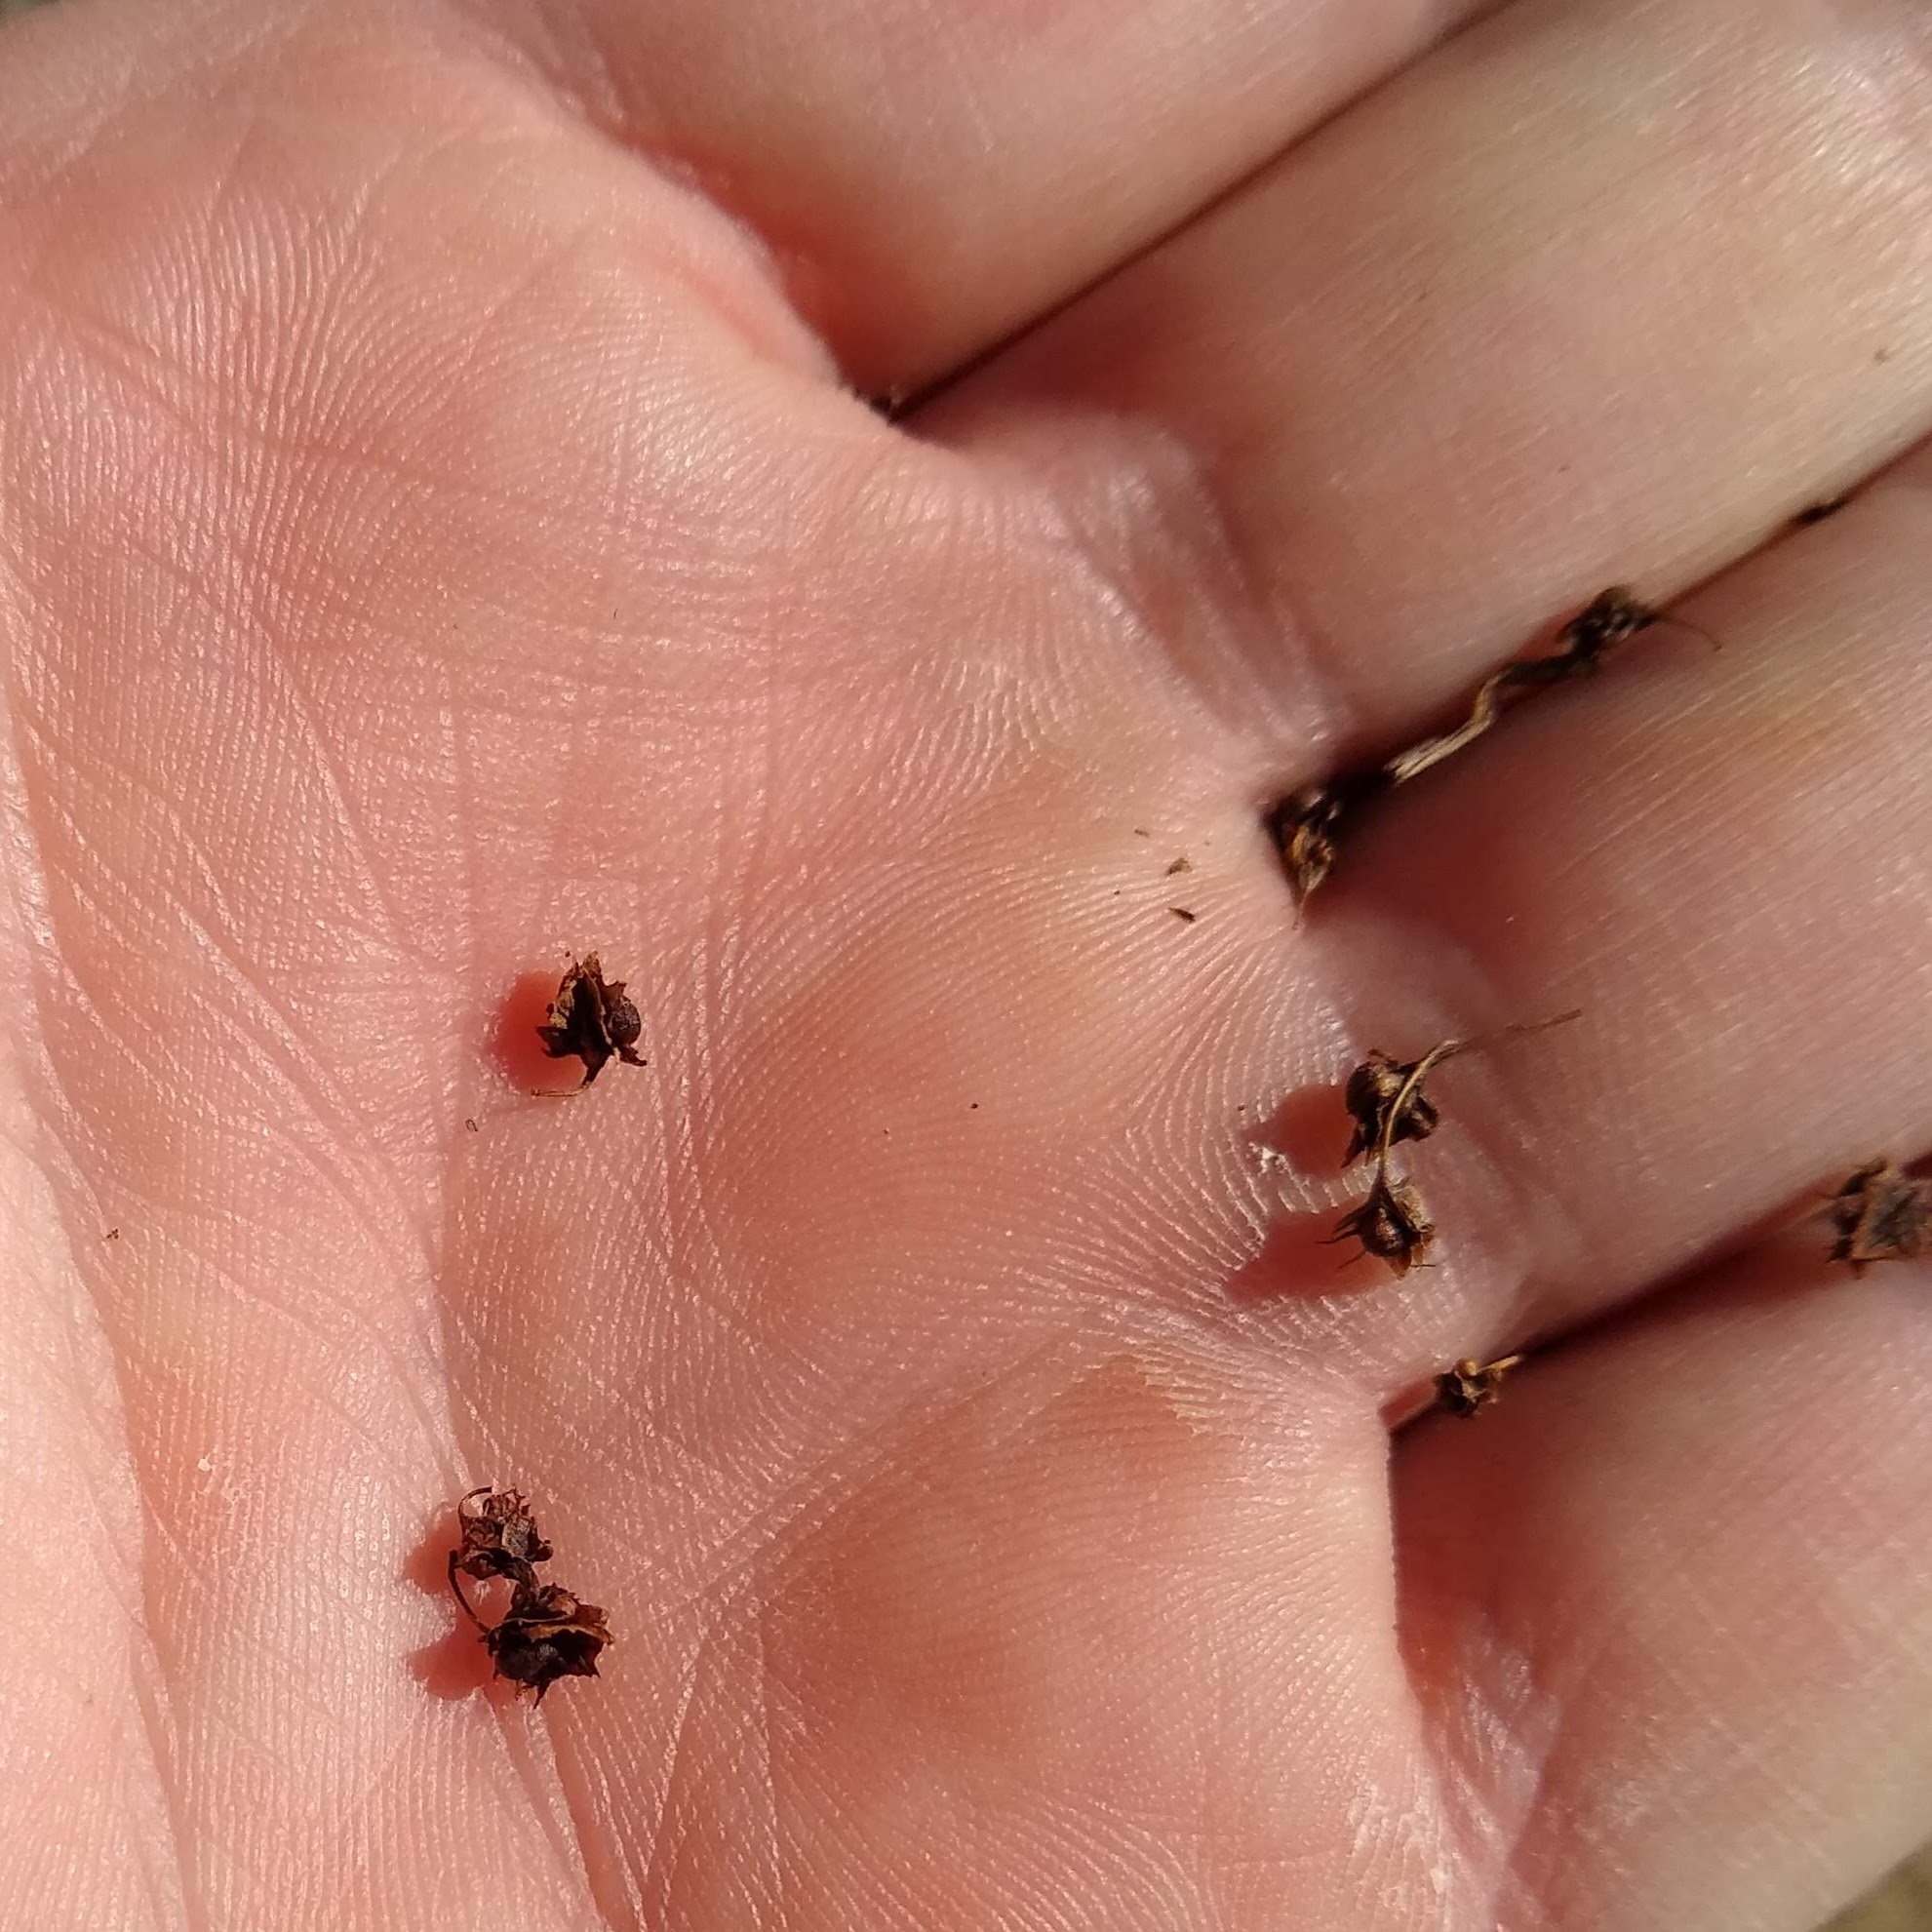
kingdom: Plantae
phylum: Tracheophyta
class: Magnoliopsida
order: Caryophyllales
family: Polygonaceae
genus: Rumex
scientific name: Rumex obtusifolius
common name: Bitter dock
